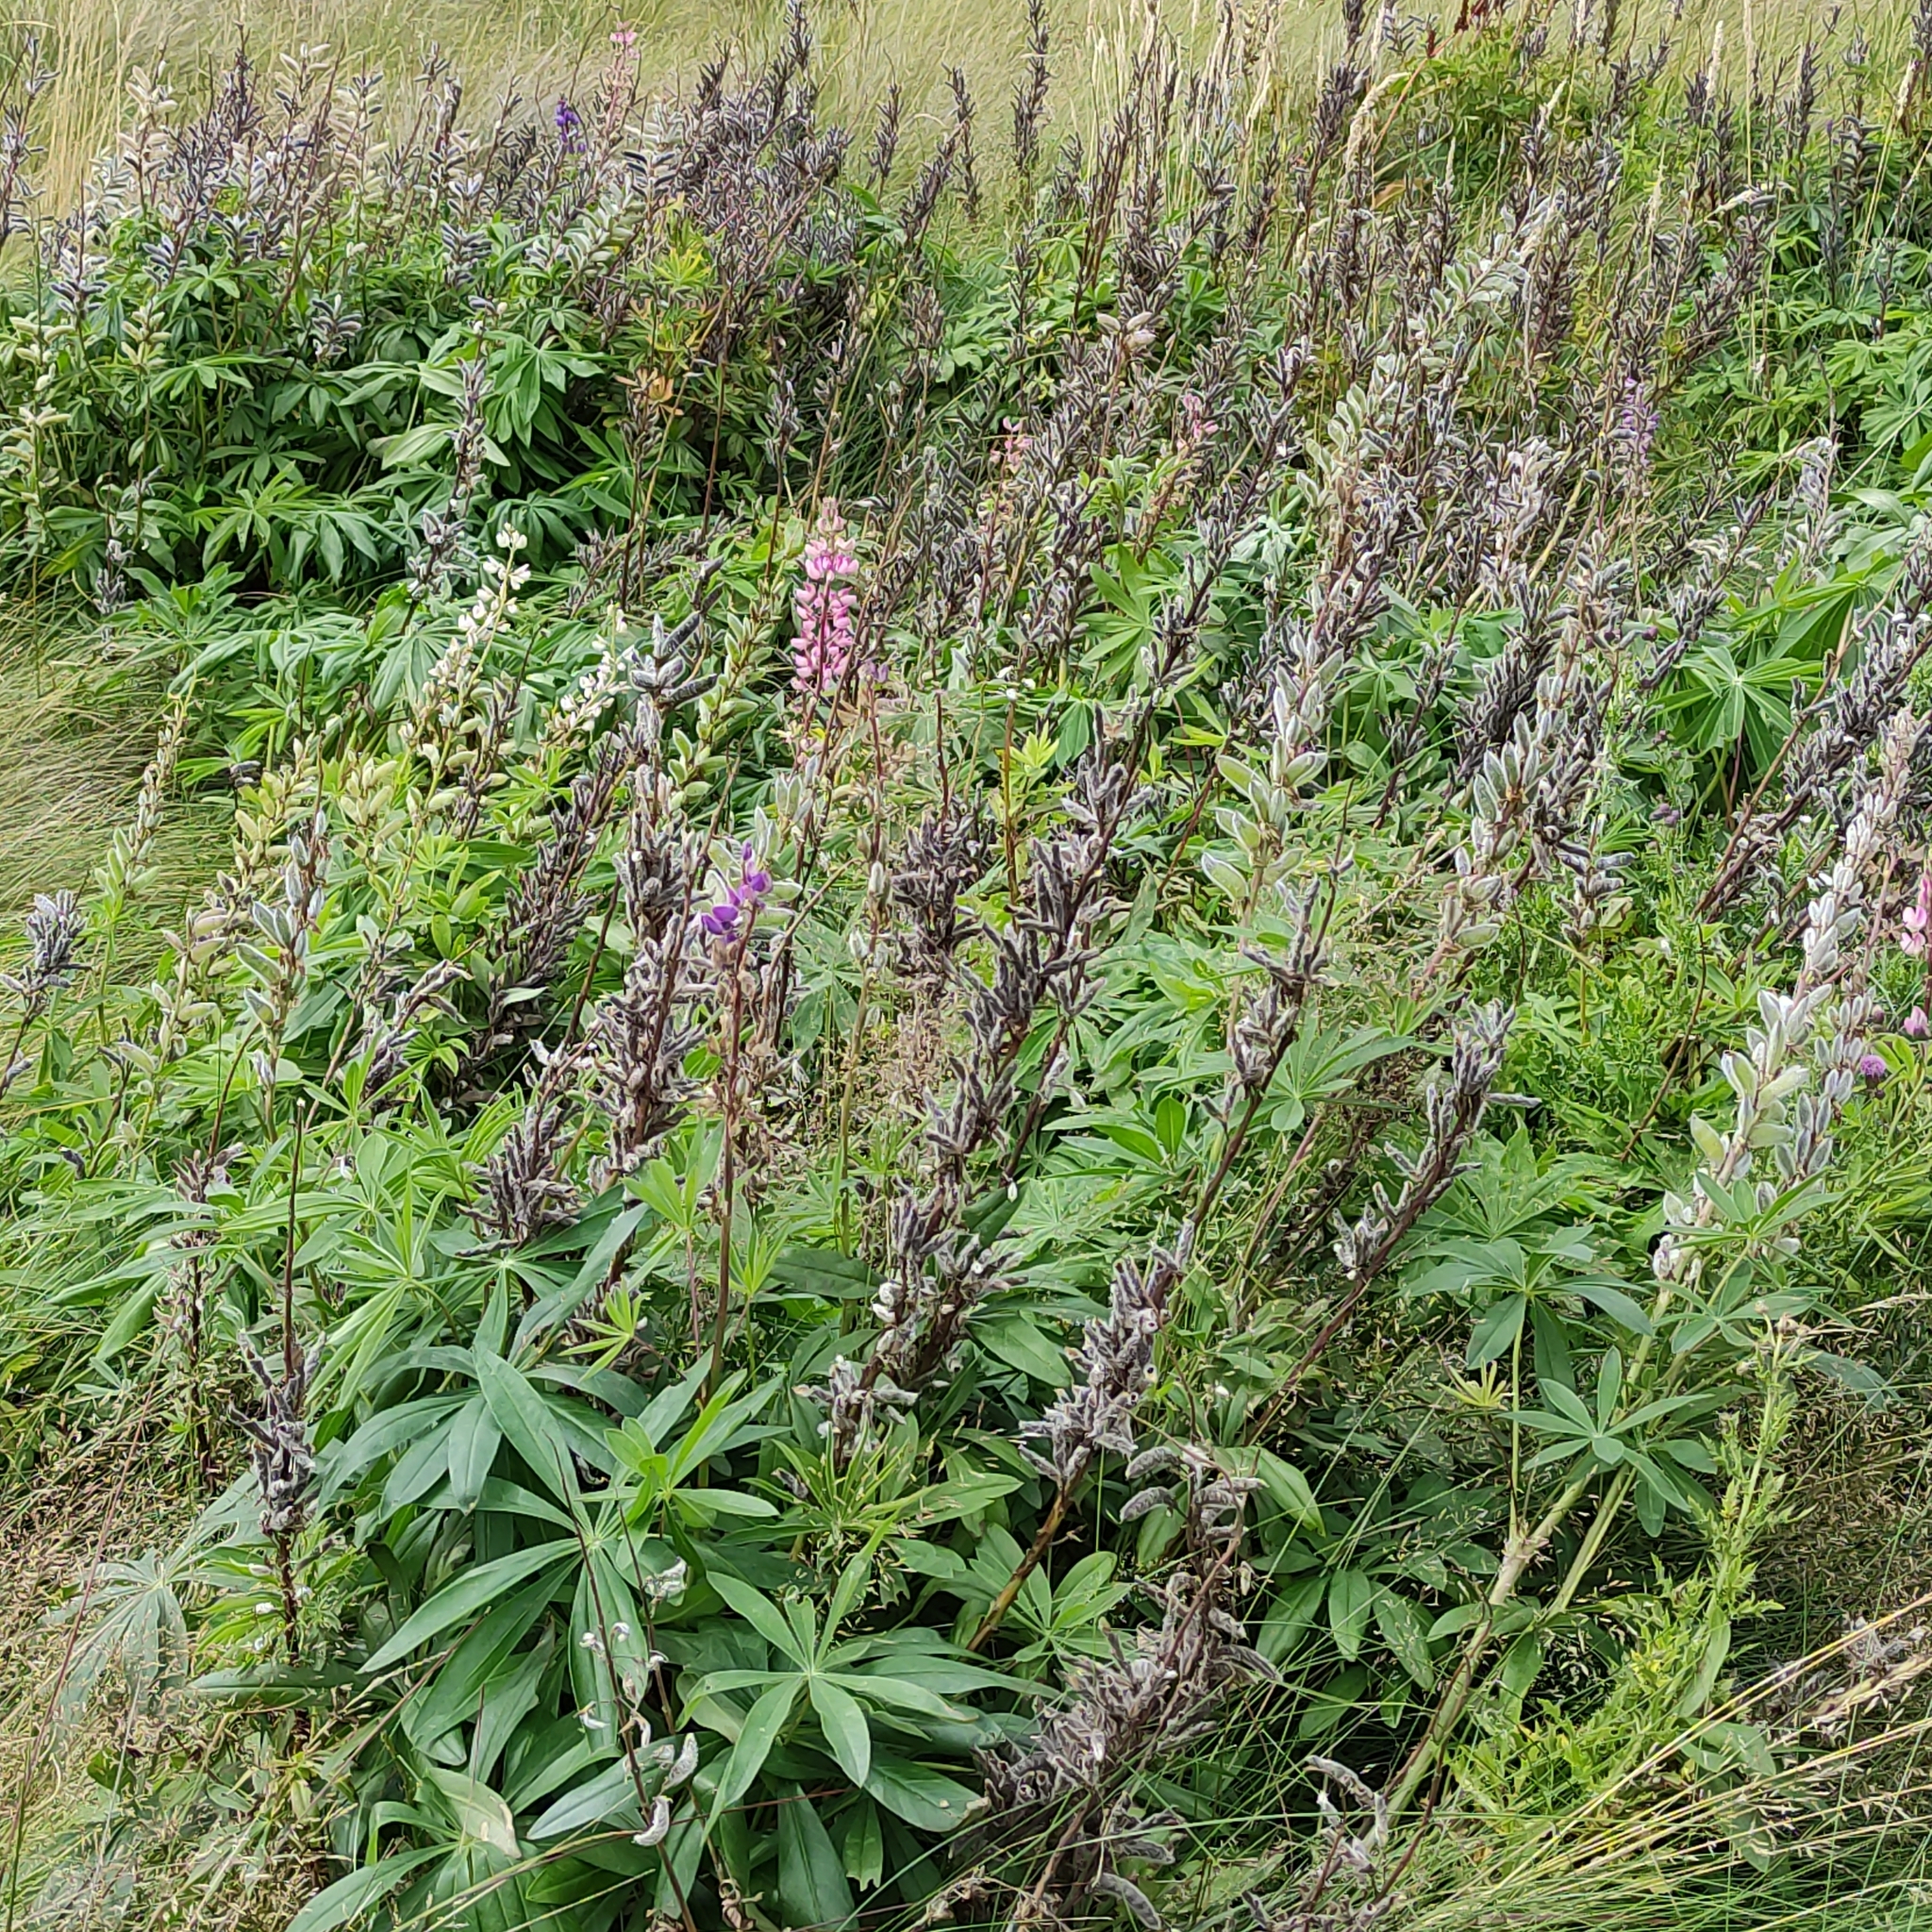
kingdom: Plantae
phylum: Tracheophyta
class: Magnoliopsida
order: Fabales
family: Fabaceae
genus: Lupinus
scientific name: Lupinus polyphyllus
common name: Garden lupin
